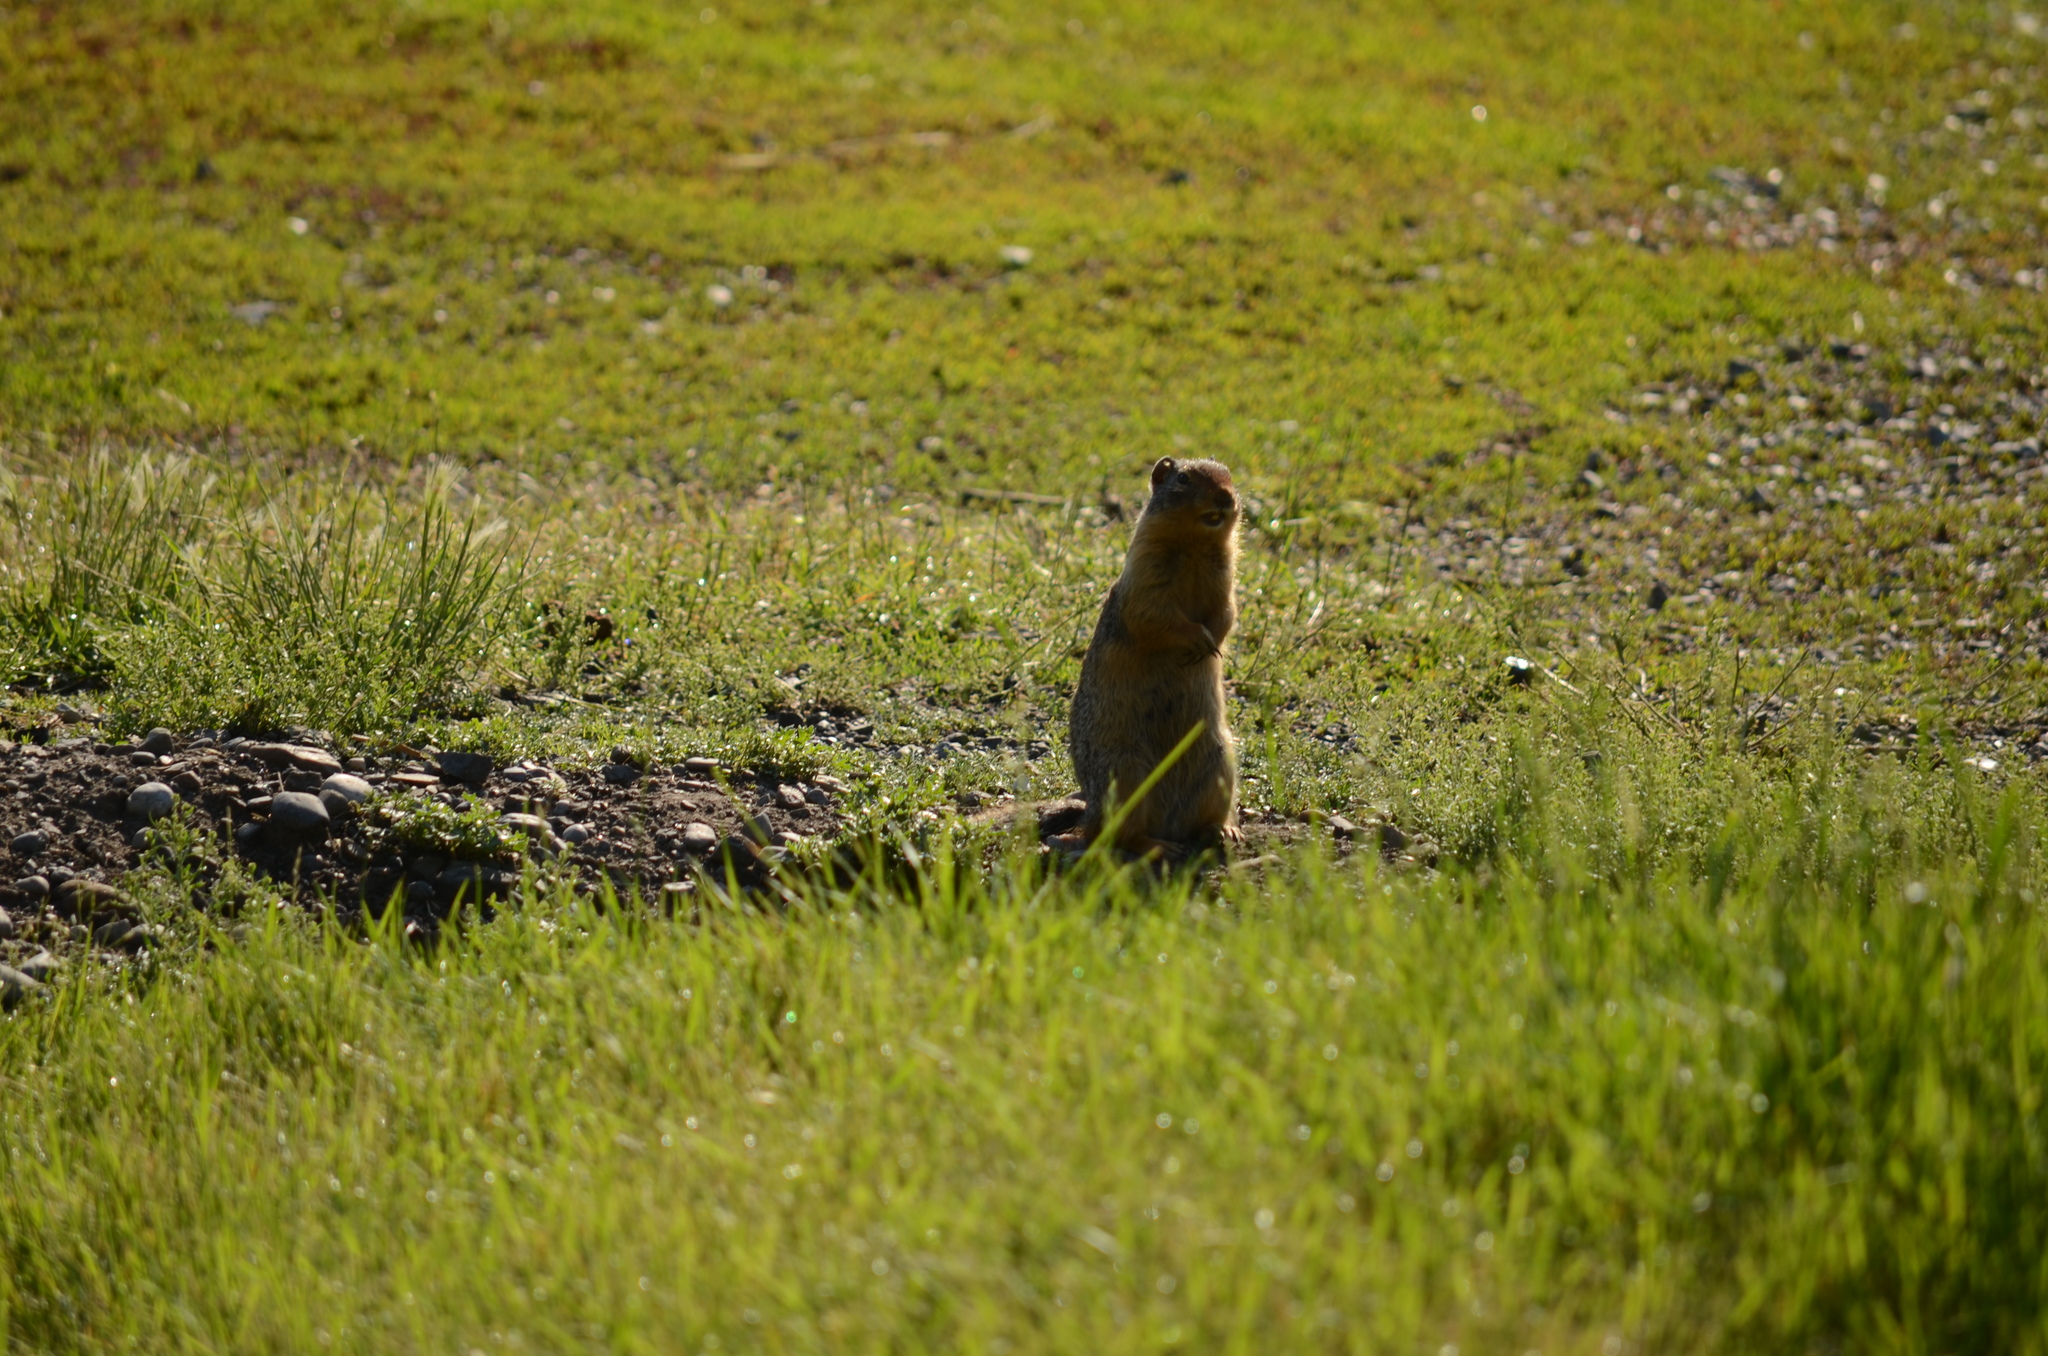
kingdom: Animalia
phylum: Chordata
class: Mammalia
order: Rodentia
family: Sciuridae
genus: Urocitellus
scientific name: Urocitellus columbianus
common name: Columbian ground squirrel
